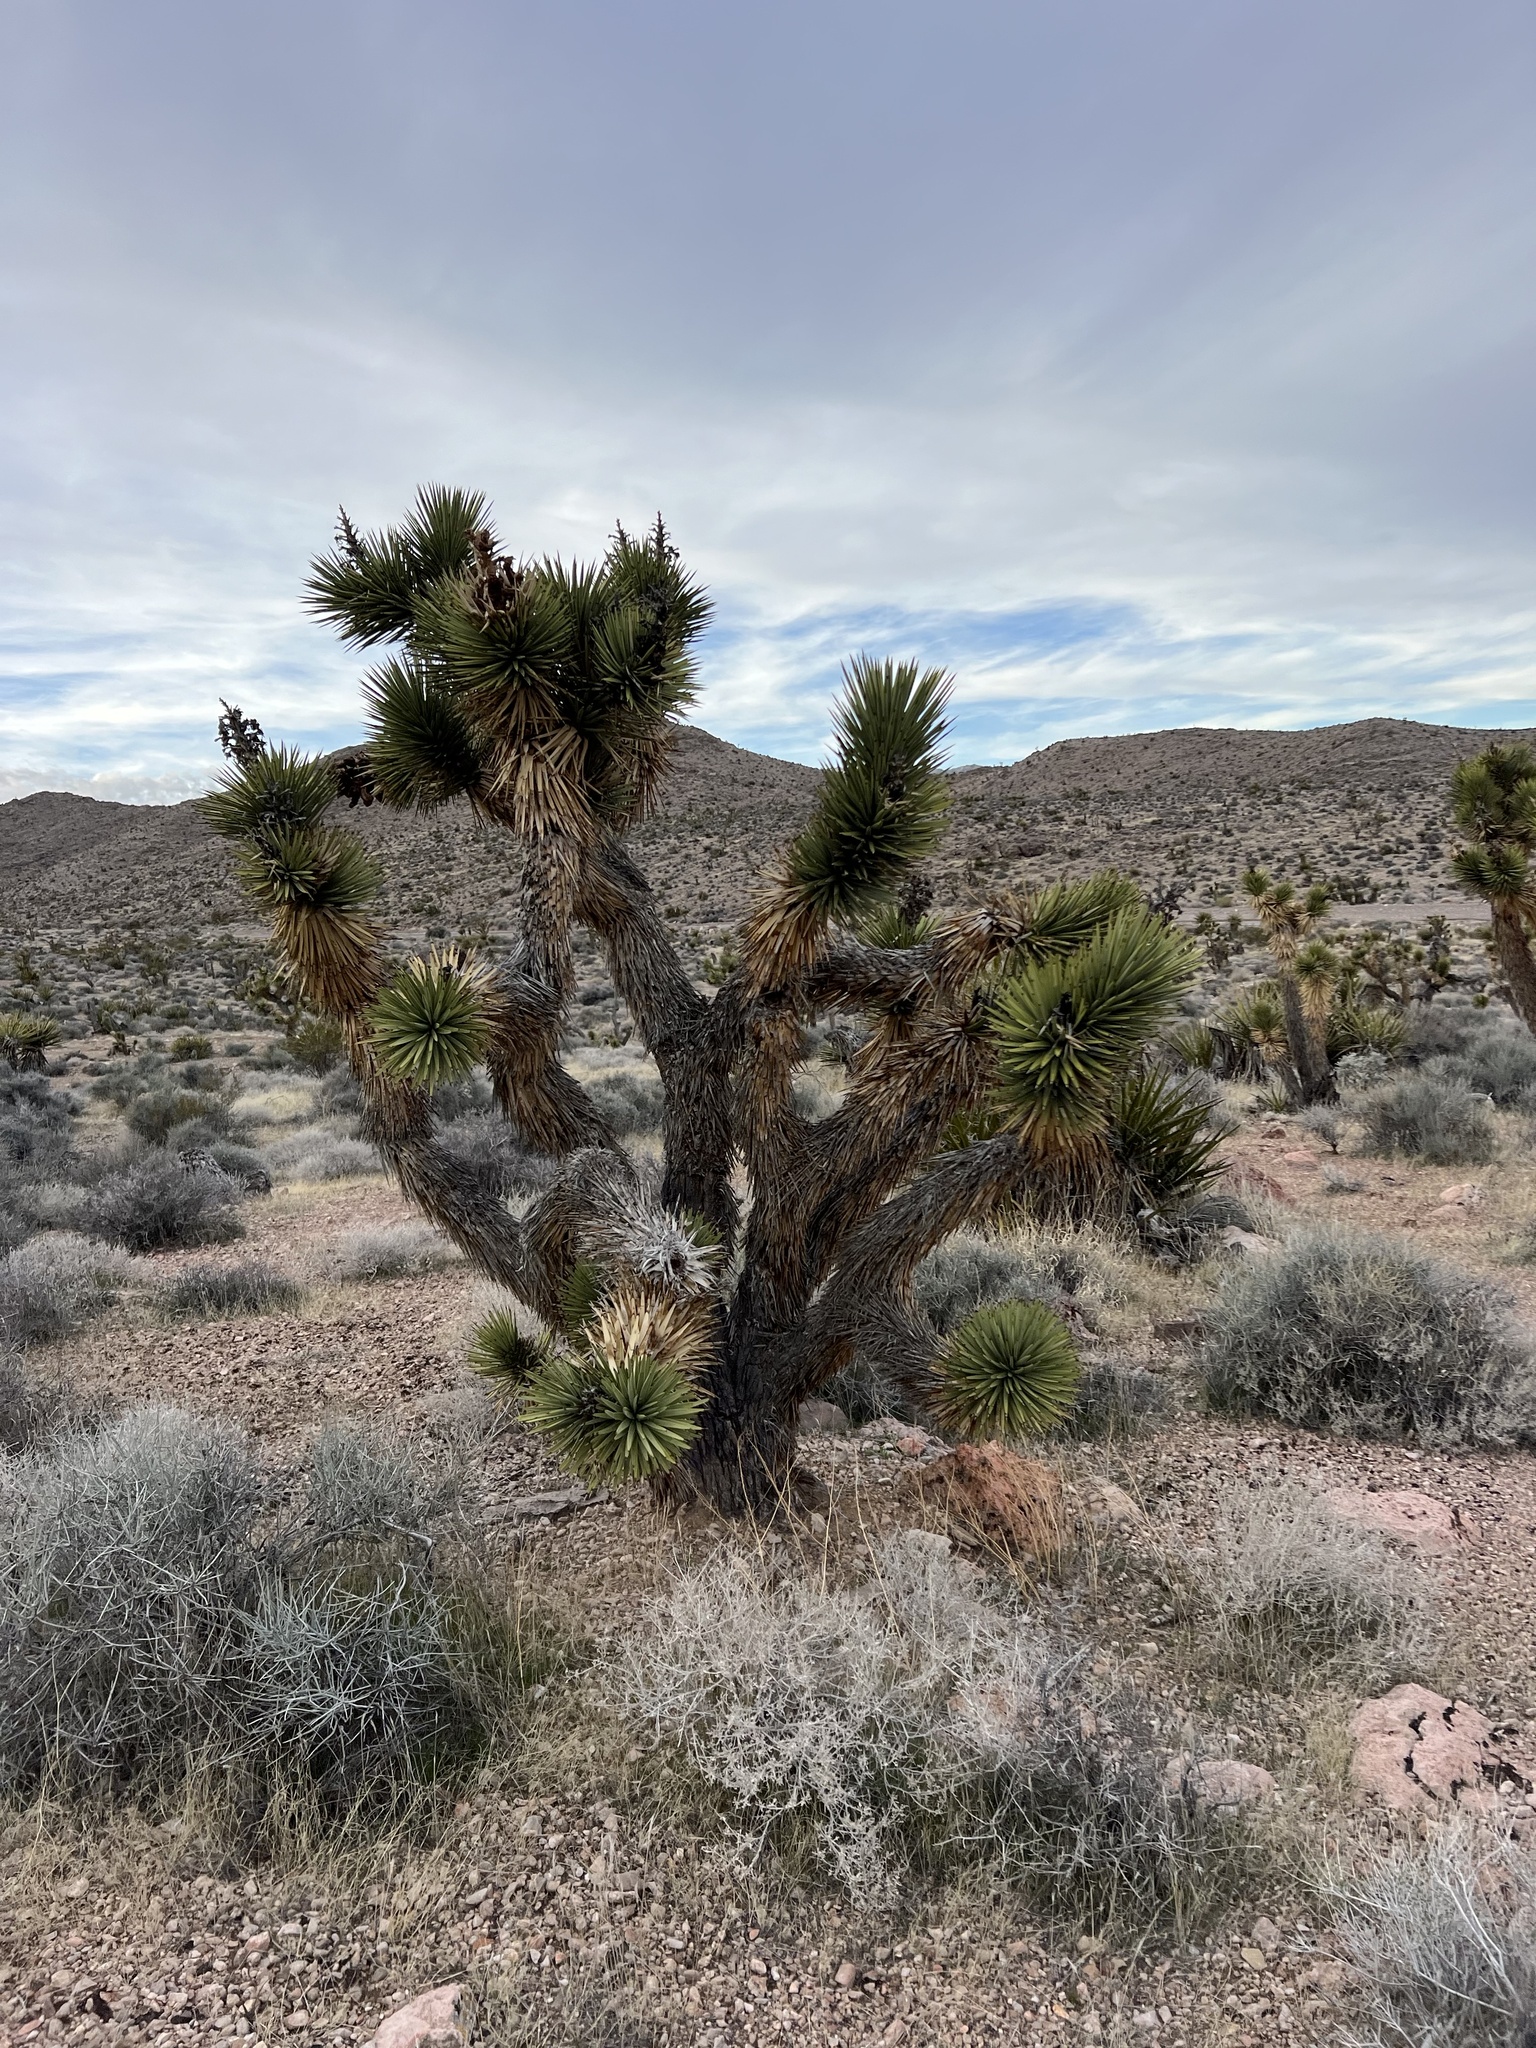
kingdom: Plantae
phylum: Tracheophyta
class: Liliopsida
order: Asparagales
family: Asparagaceae
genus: Yucca
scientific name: Yucca brevifolia
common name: Joshua tree
